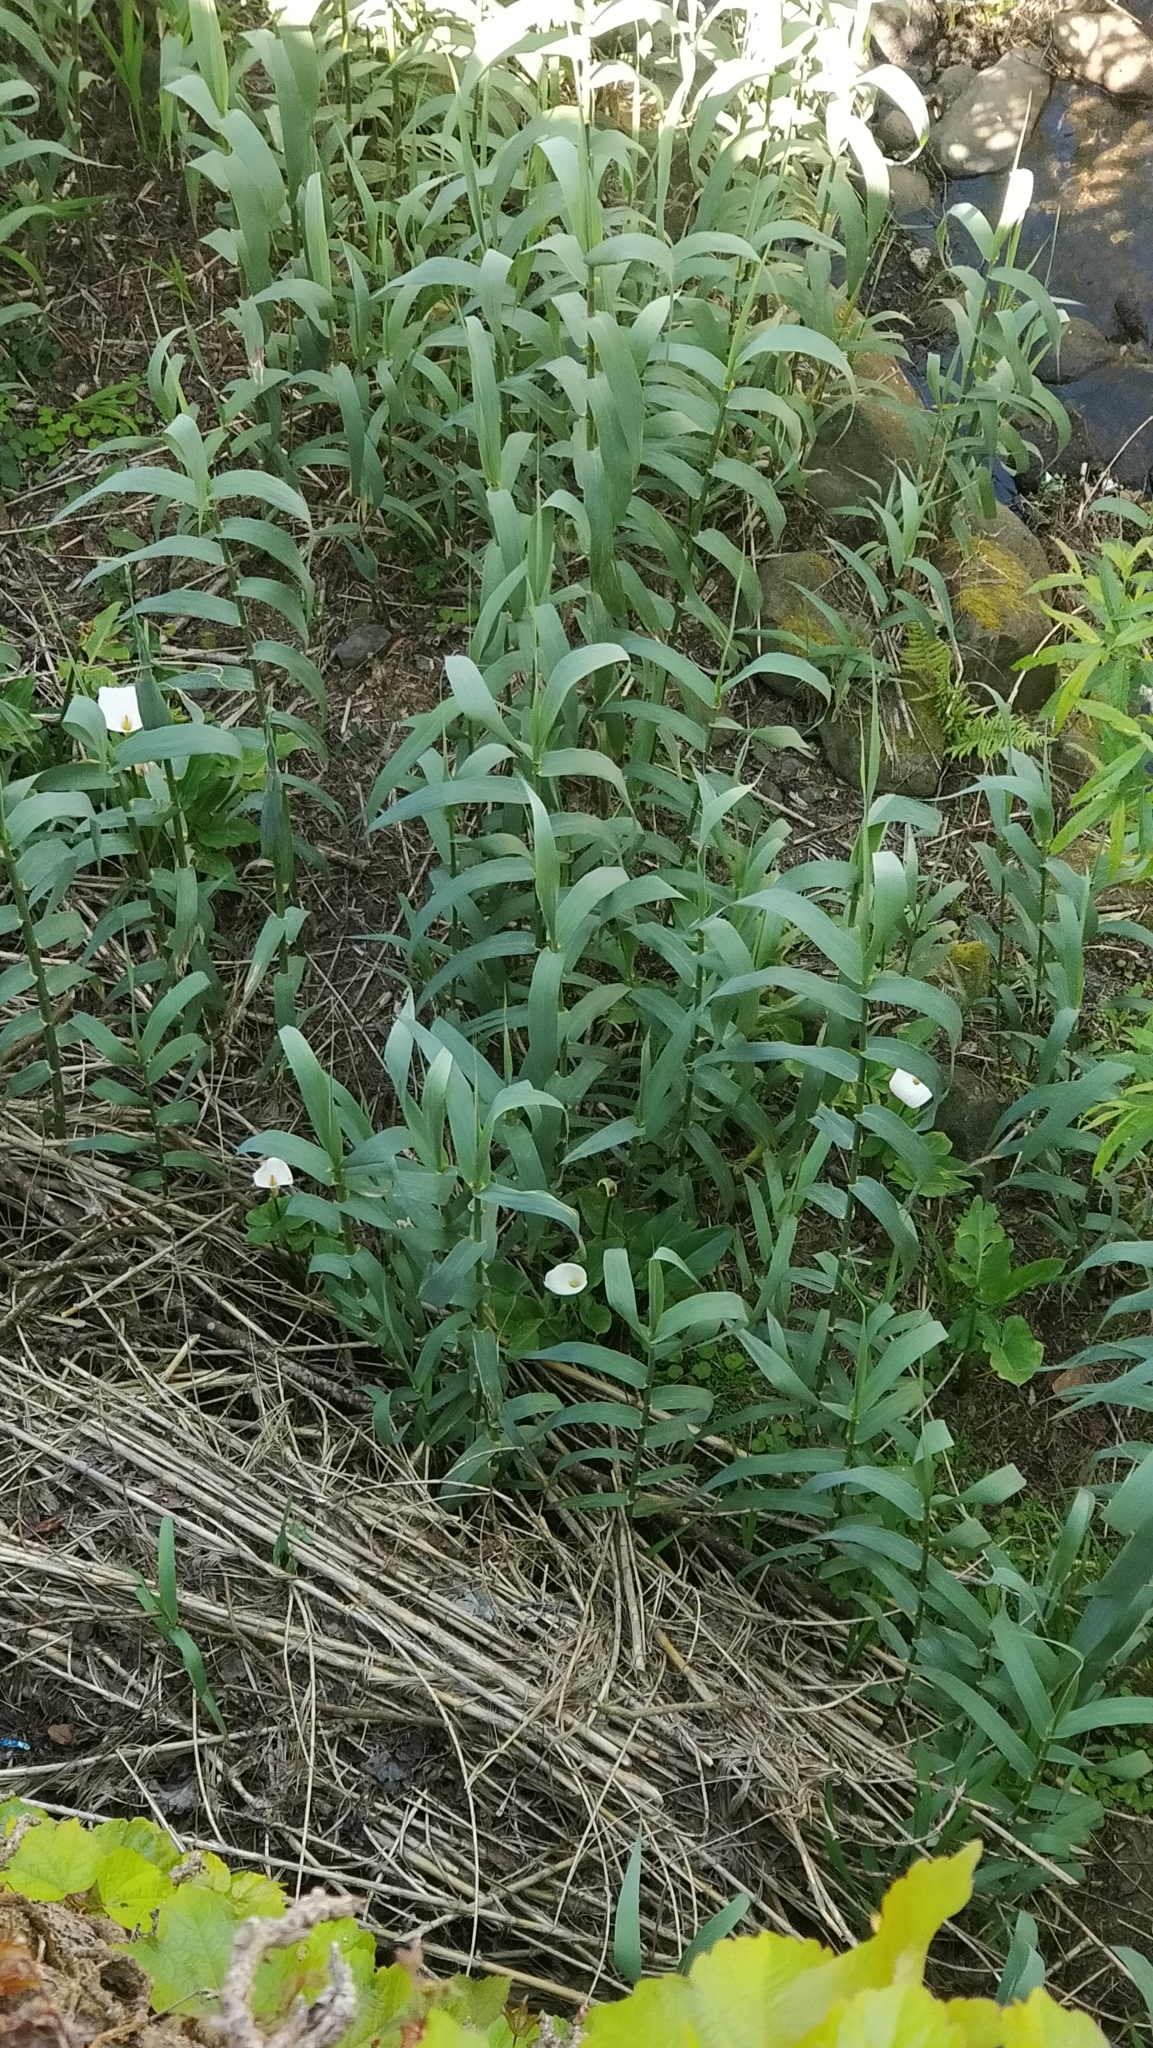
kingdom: Plantae
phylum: Tracheophyta
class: Liliopsida
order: Alismatales
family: Araceae
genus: Zantedeschia
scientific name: Zantedeschia aethiopica
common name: Altar-lily
